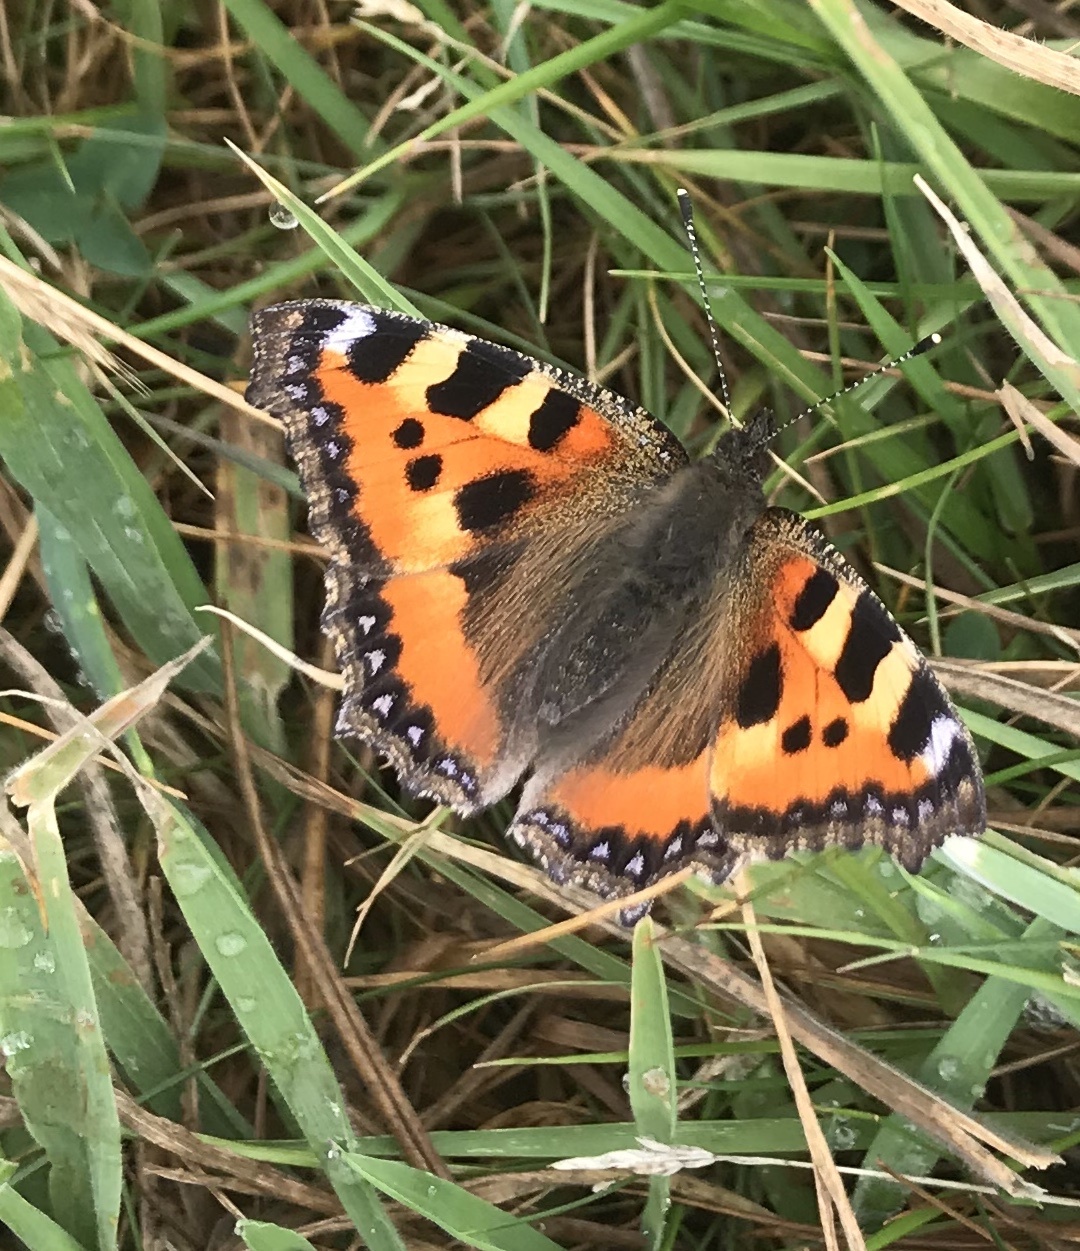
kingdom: Animalia
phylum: Arthropoda
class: Insecta
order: Lepidoptera
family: Nymphalidae
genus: Aglais
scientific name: Aglais urticae
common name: Small tortoiseshell
